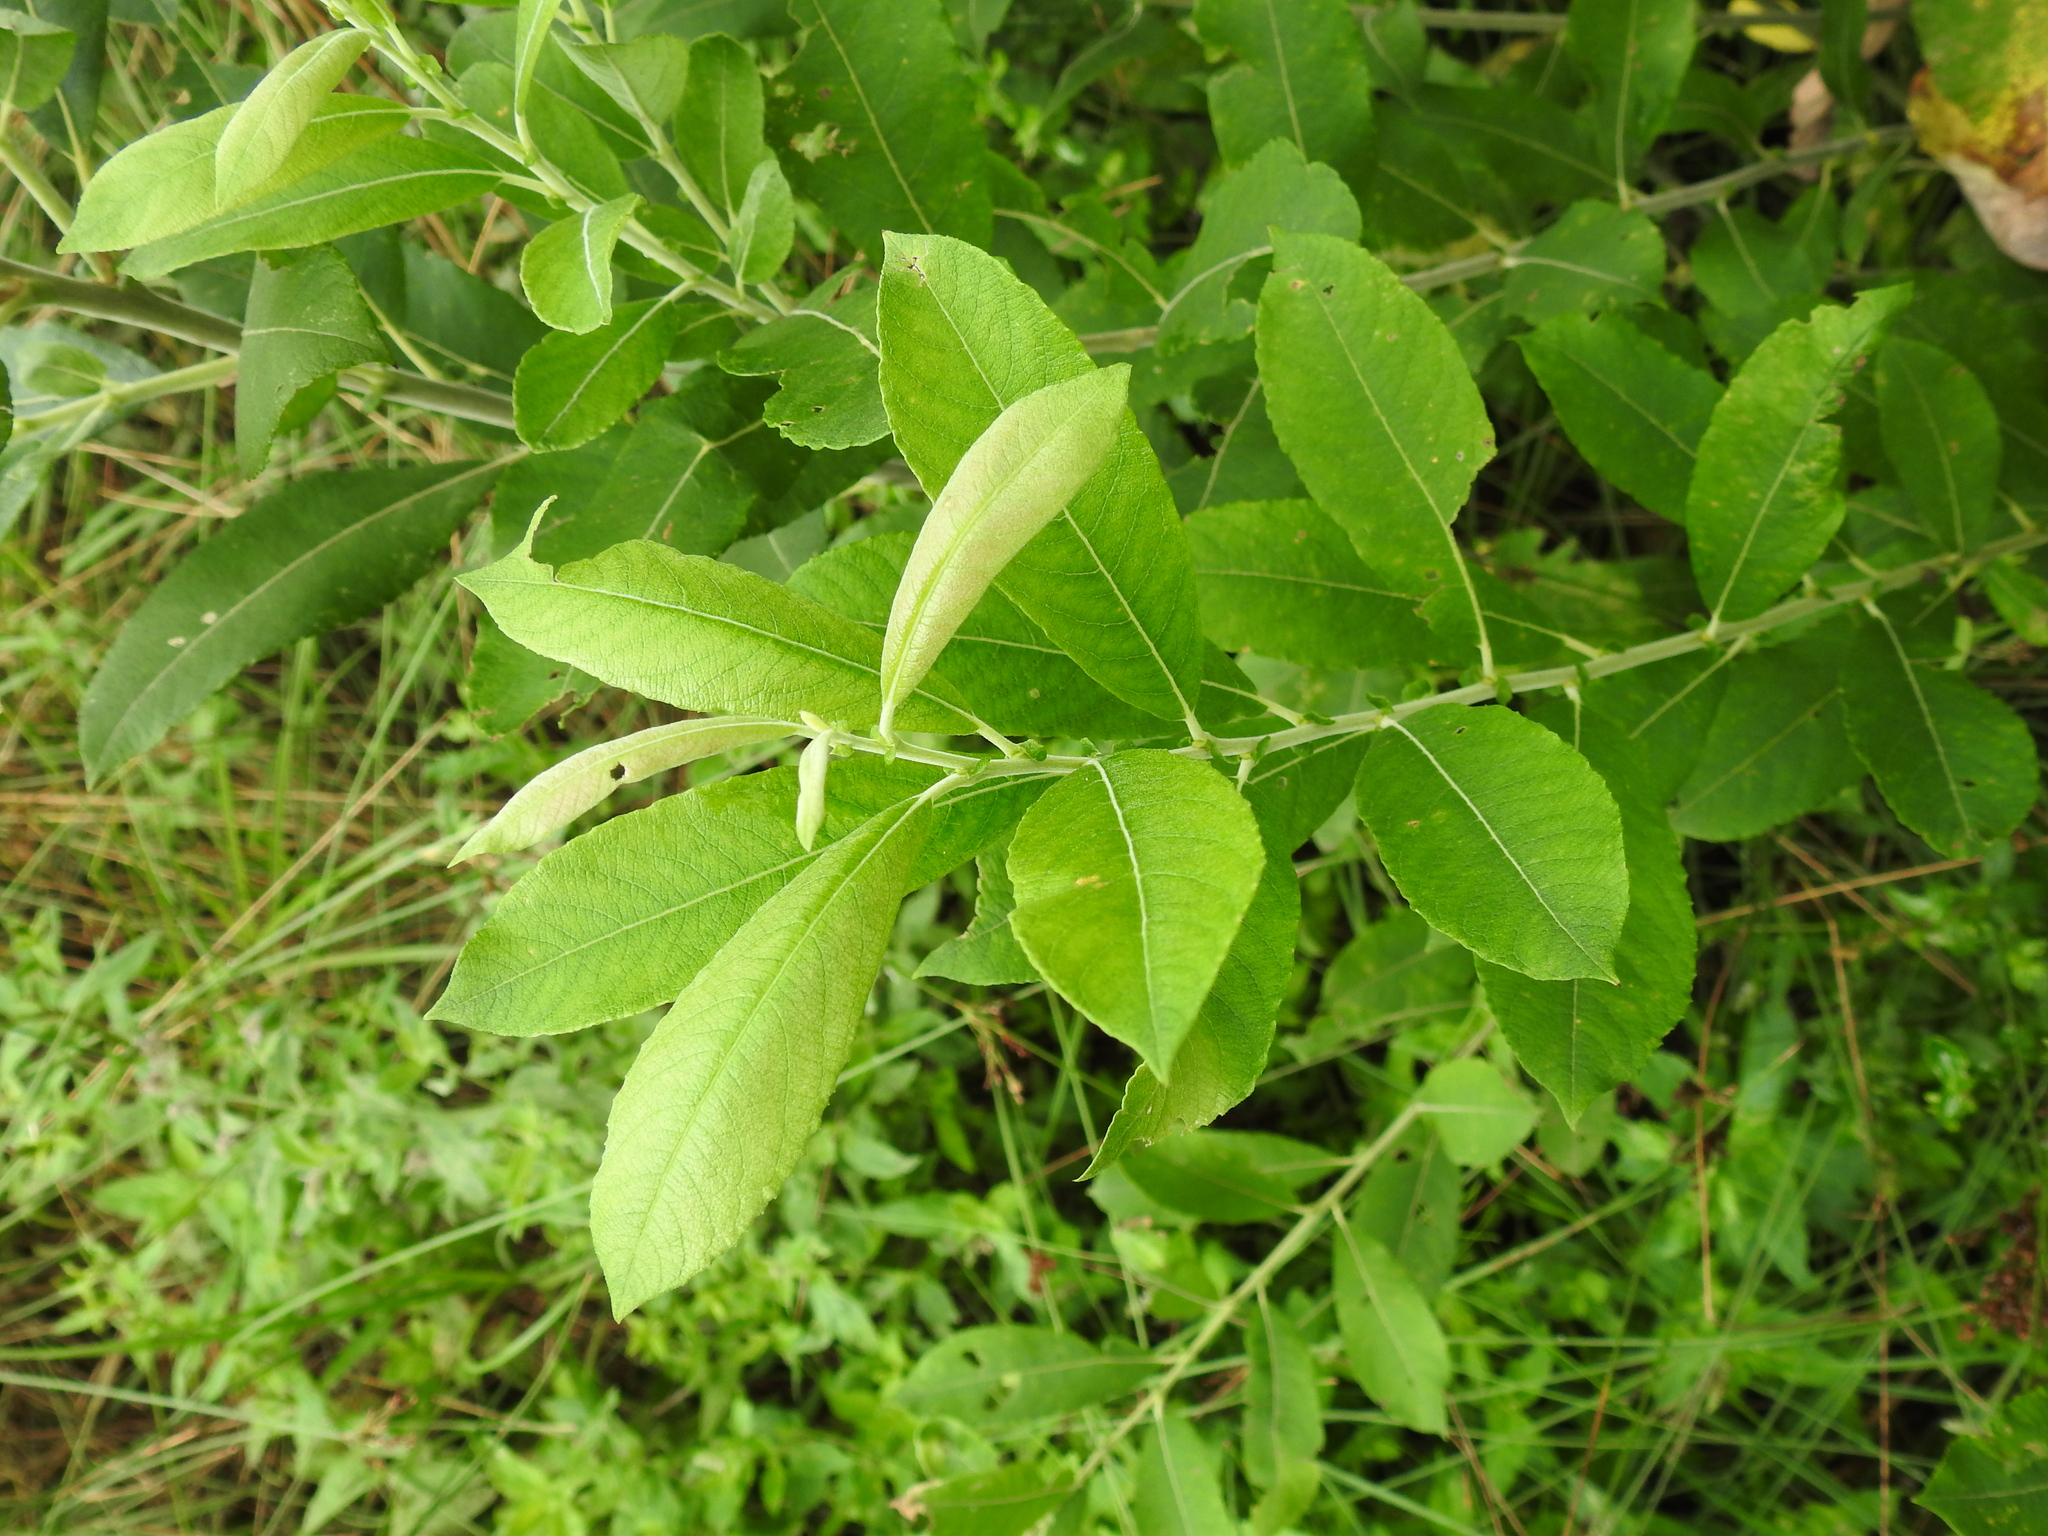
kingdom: Plantae
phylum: Tracheophyta
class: Magnoliopsida
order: Malpighiales
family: Salicaceae
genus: Salix
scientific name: Salix cinerea
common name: Common sallow
